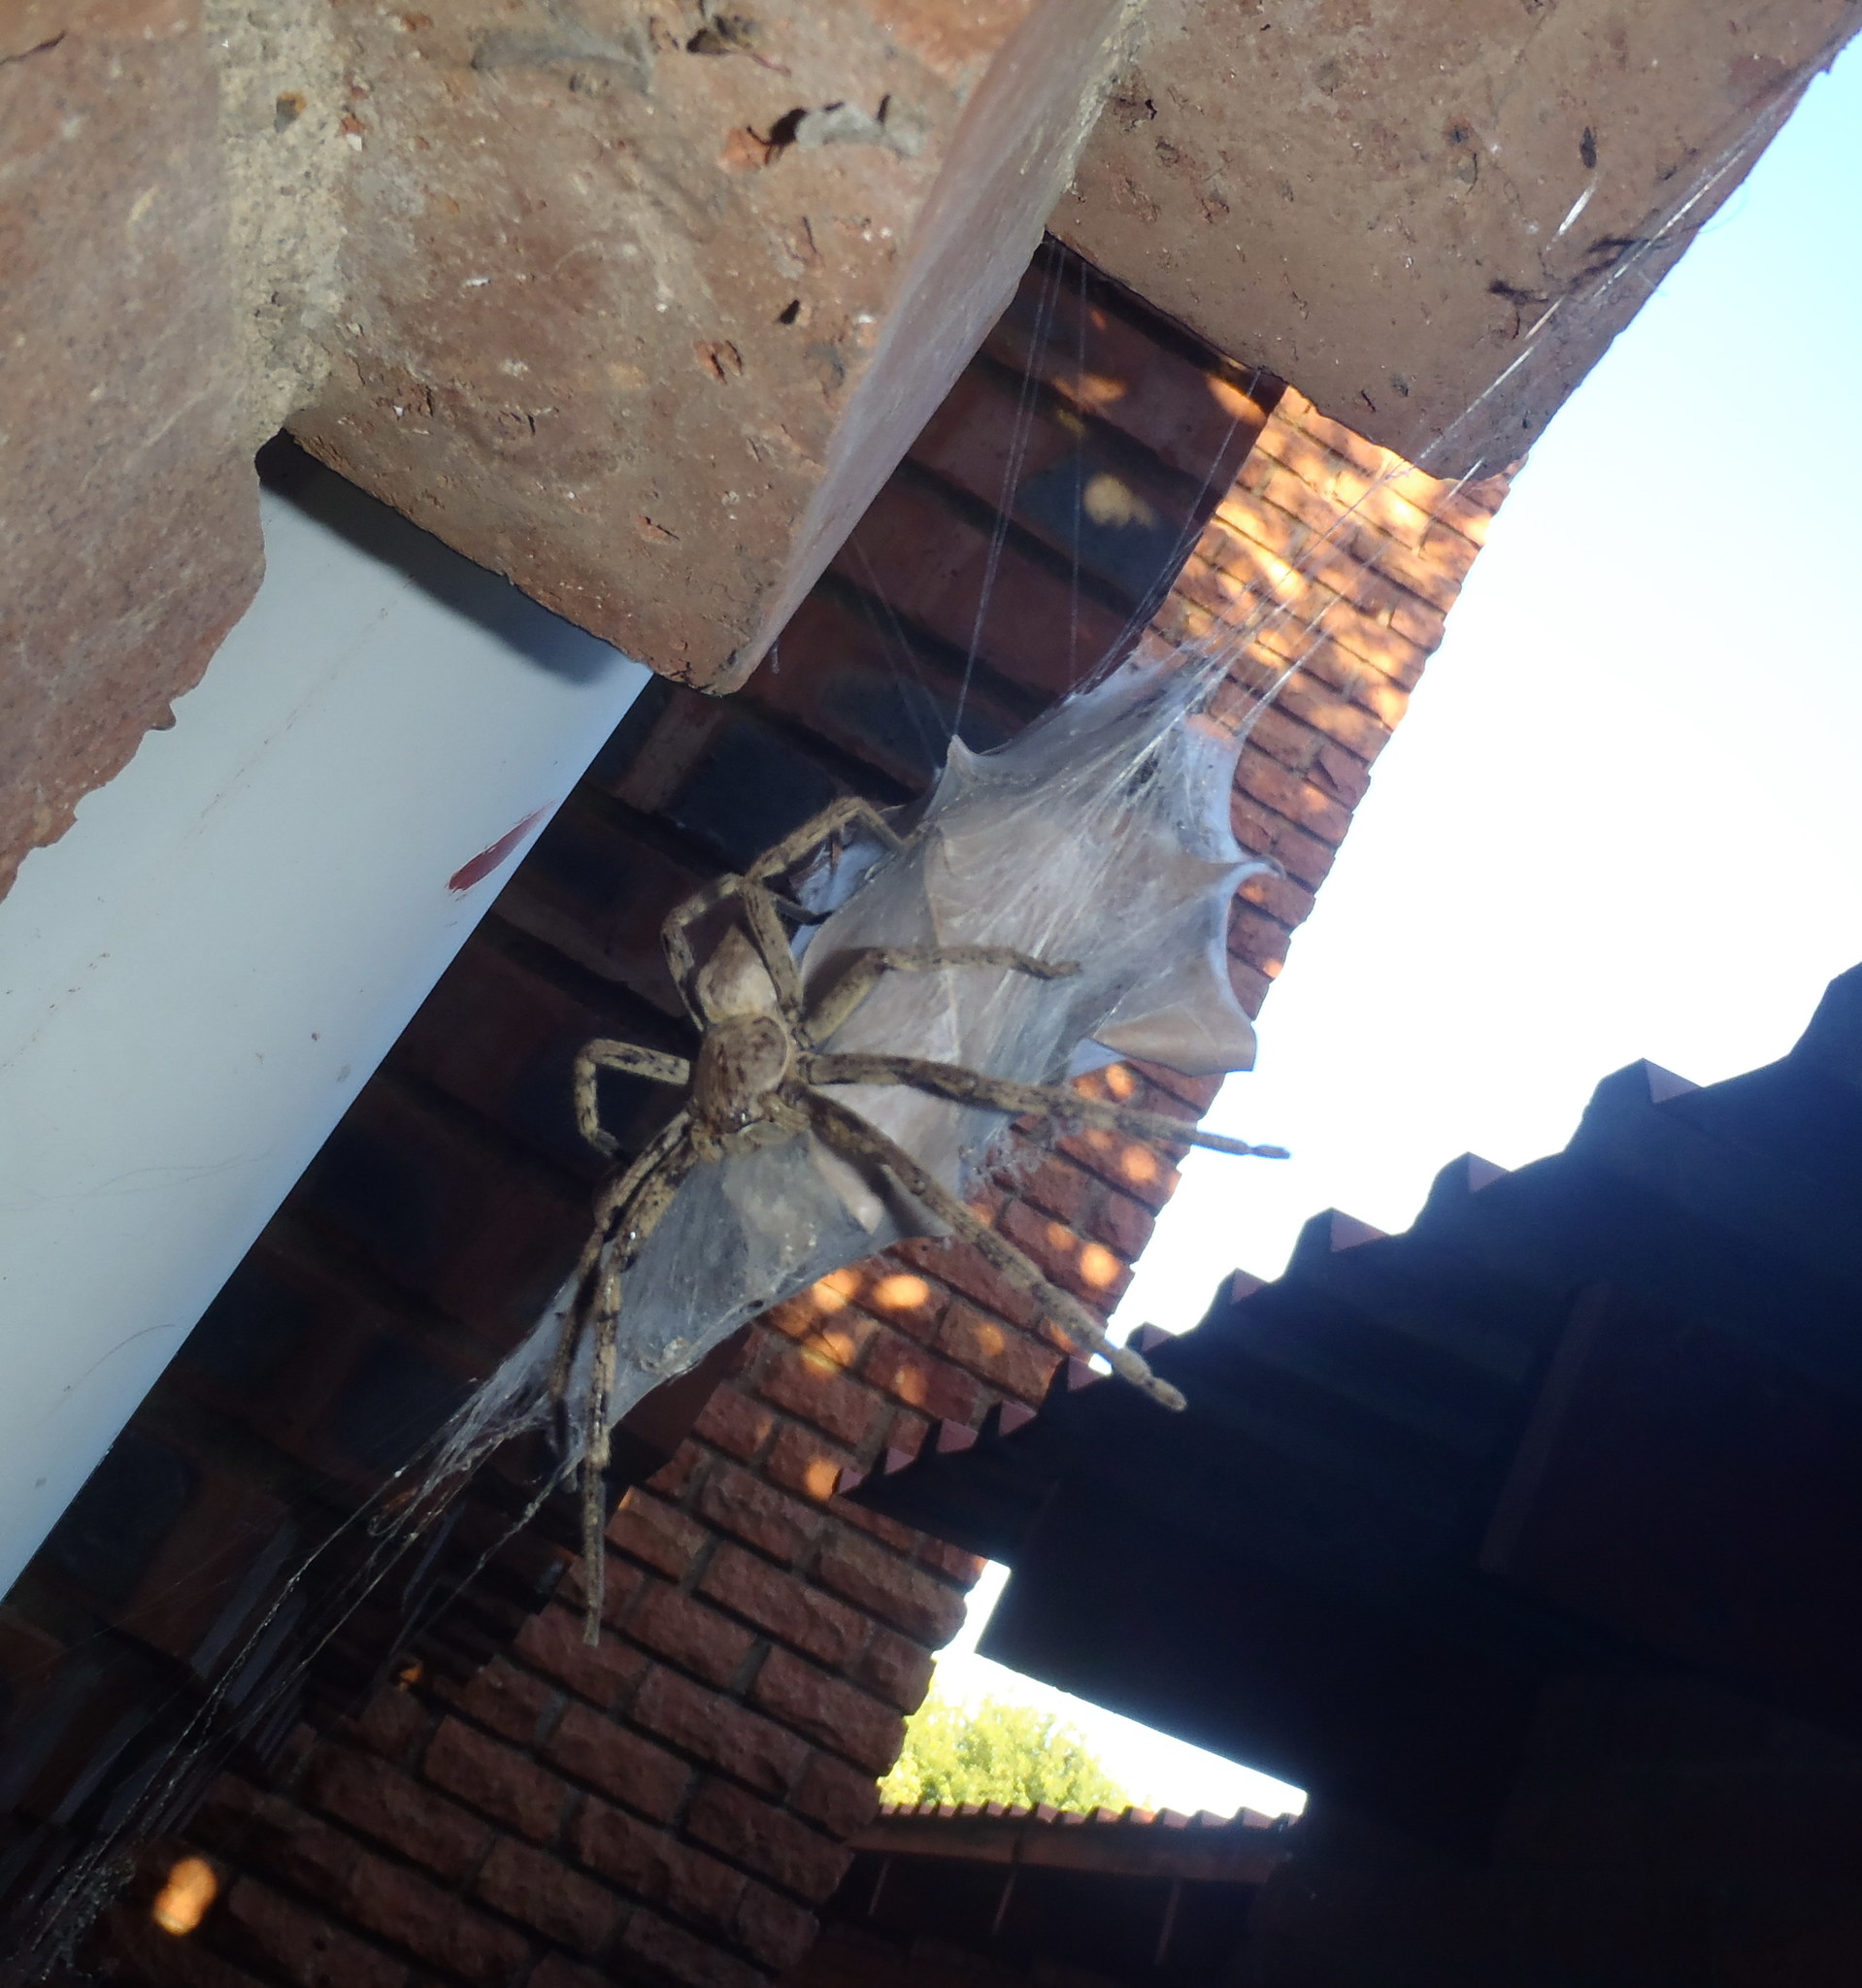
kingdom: Animalia
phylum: Arthropoda
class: Arachnida
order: Araneae
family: Sparassidae
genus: Palystes
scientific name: Palystes superciliosus
